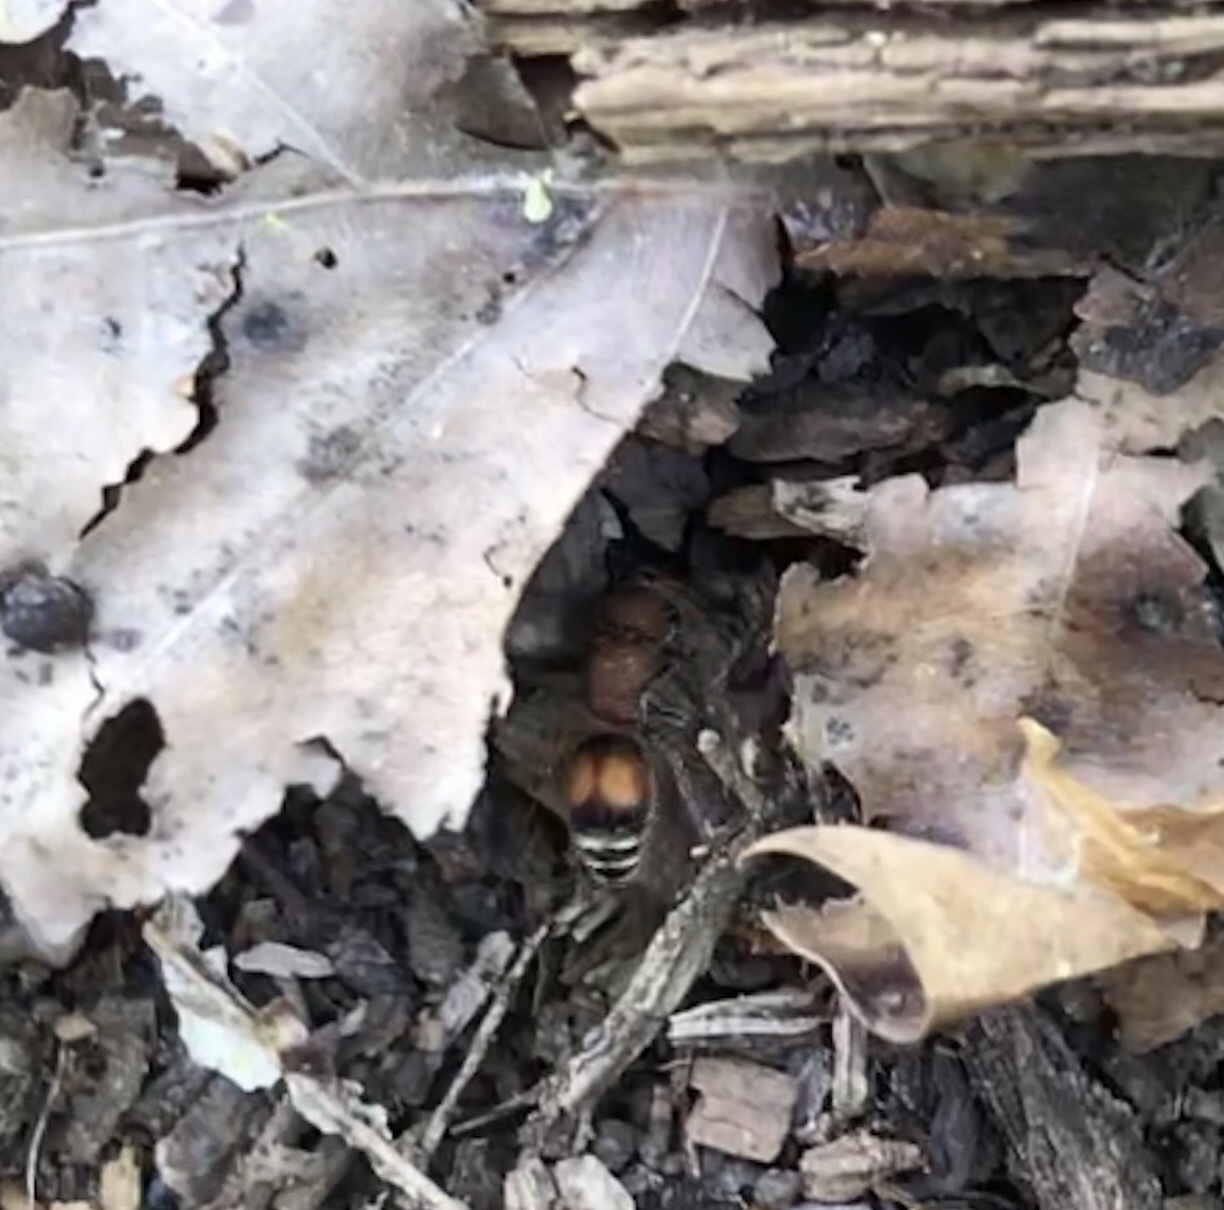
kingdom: Animalia
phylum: Arthropoda
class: Insecta
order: Hymenoptera
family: Mutillidae
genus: Pseudomethoca
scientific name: Pseudomethoca
